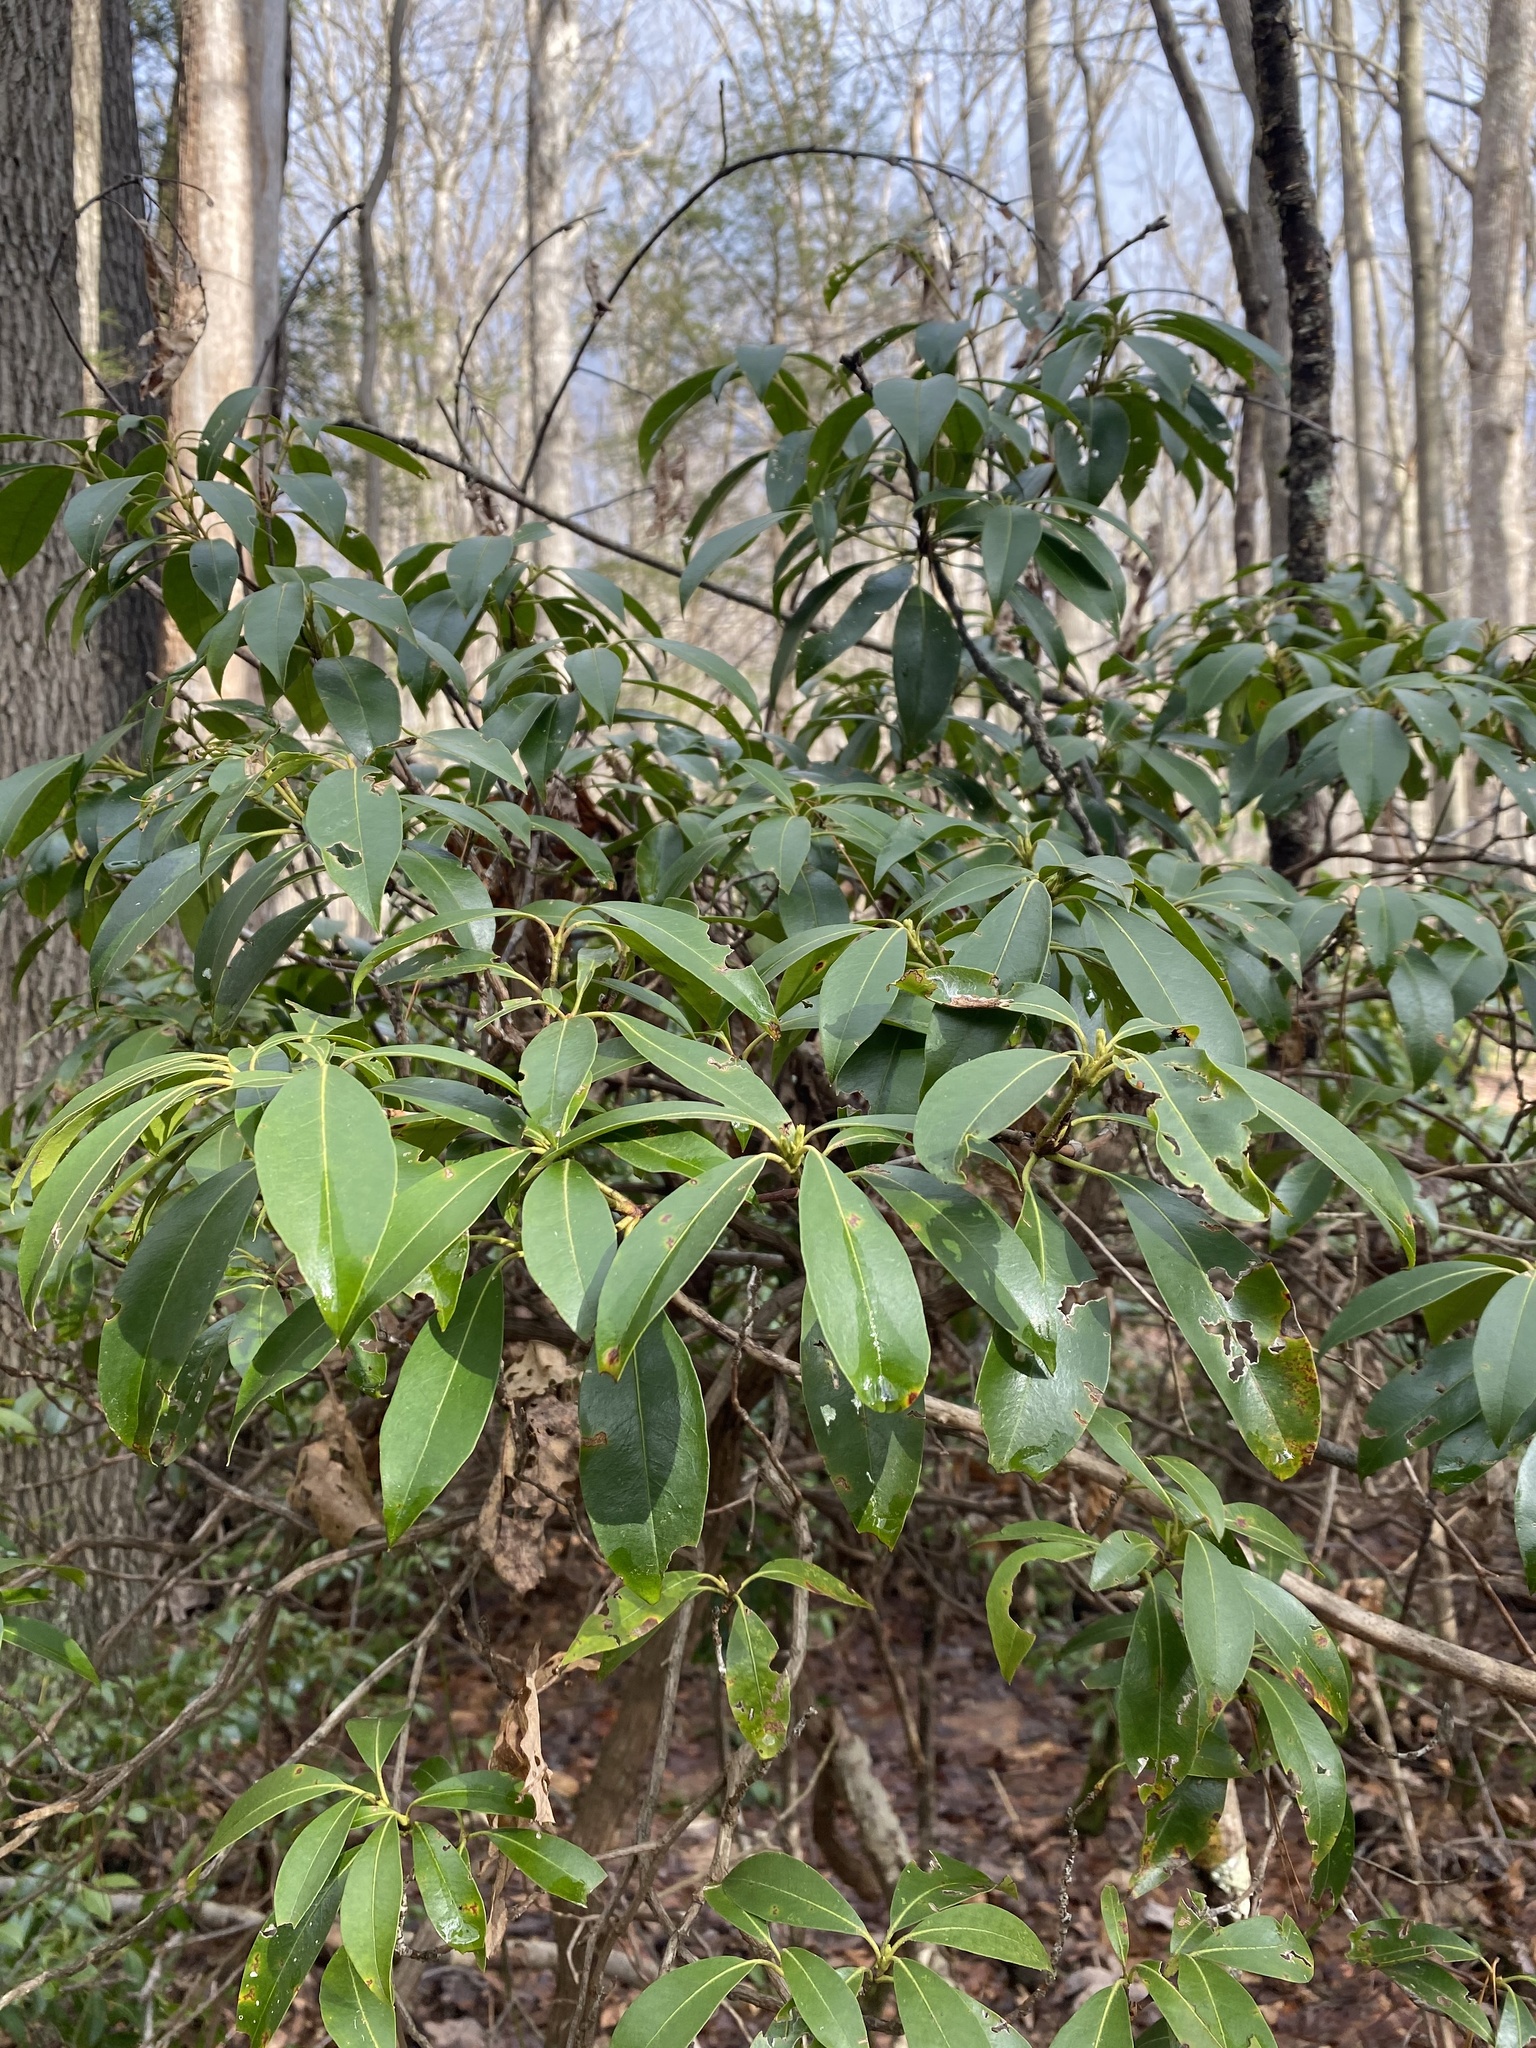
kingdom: Plantae
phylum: Tracheophyta
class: Magnoliopsida
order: Ericales
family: Ericaceae
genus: Kalmia
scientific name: Kalmia latifolia
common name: Mountain-laurel
